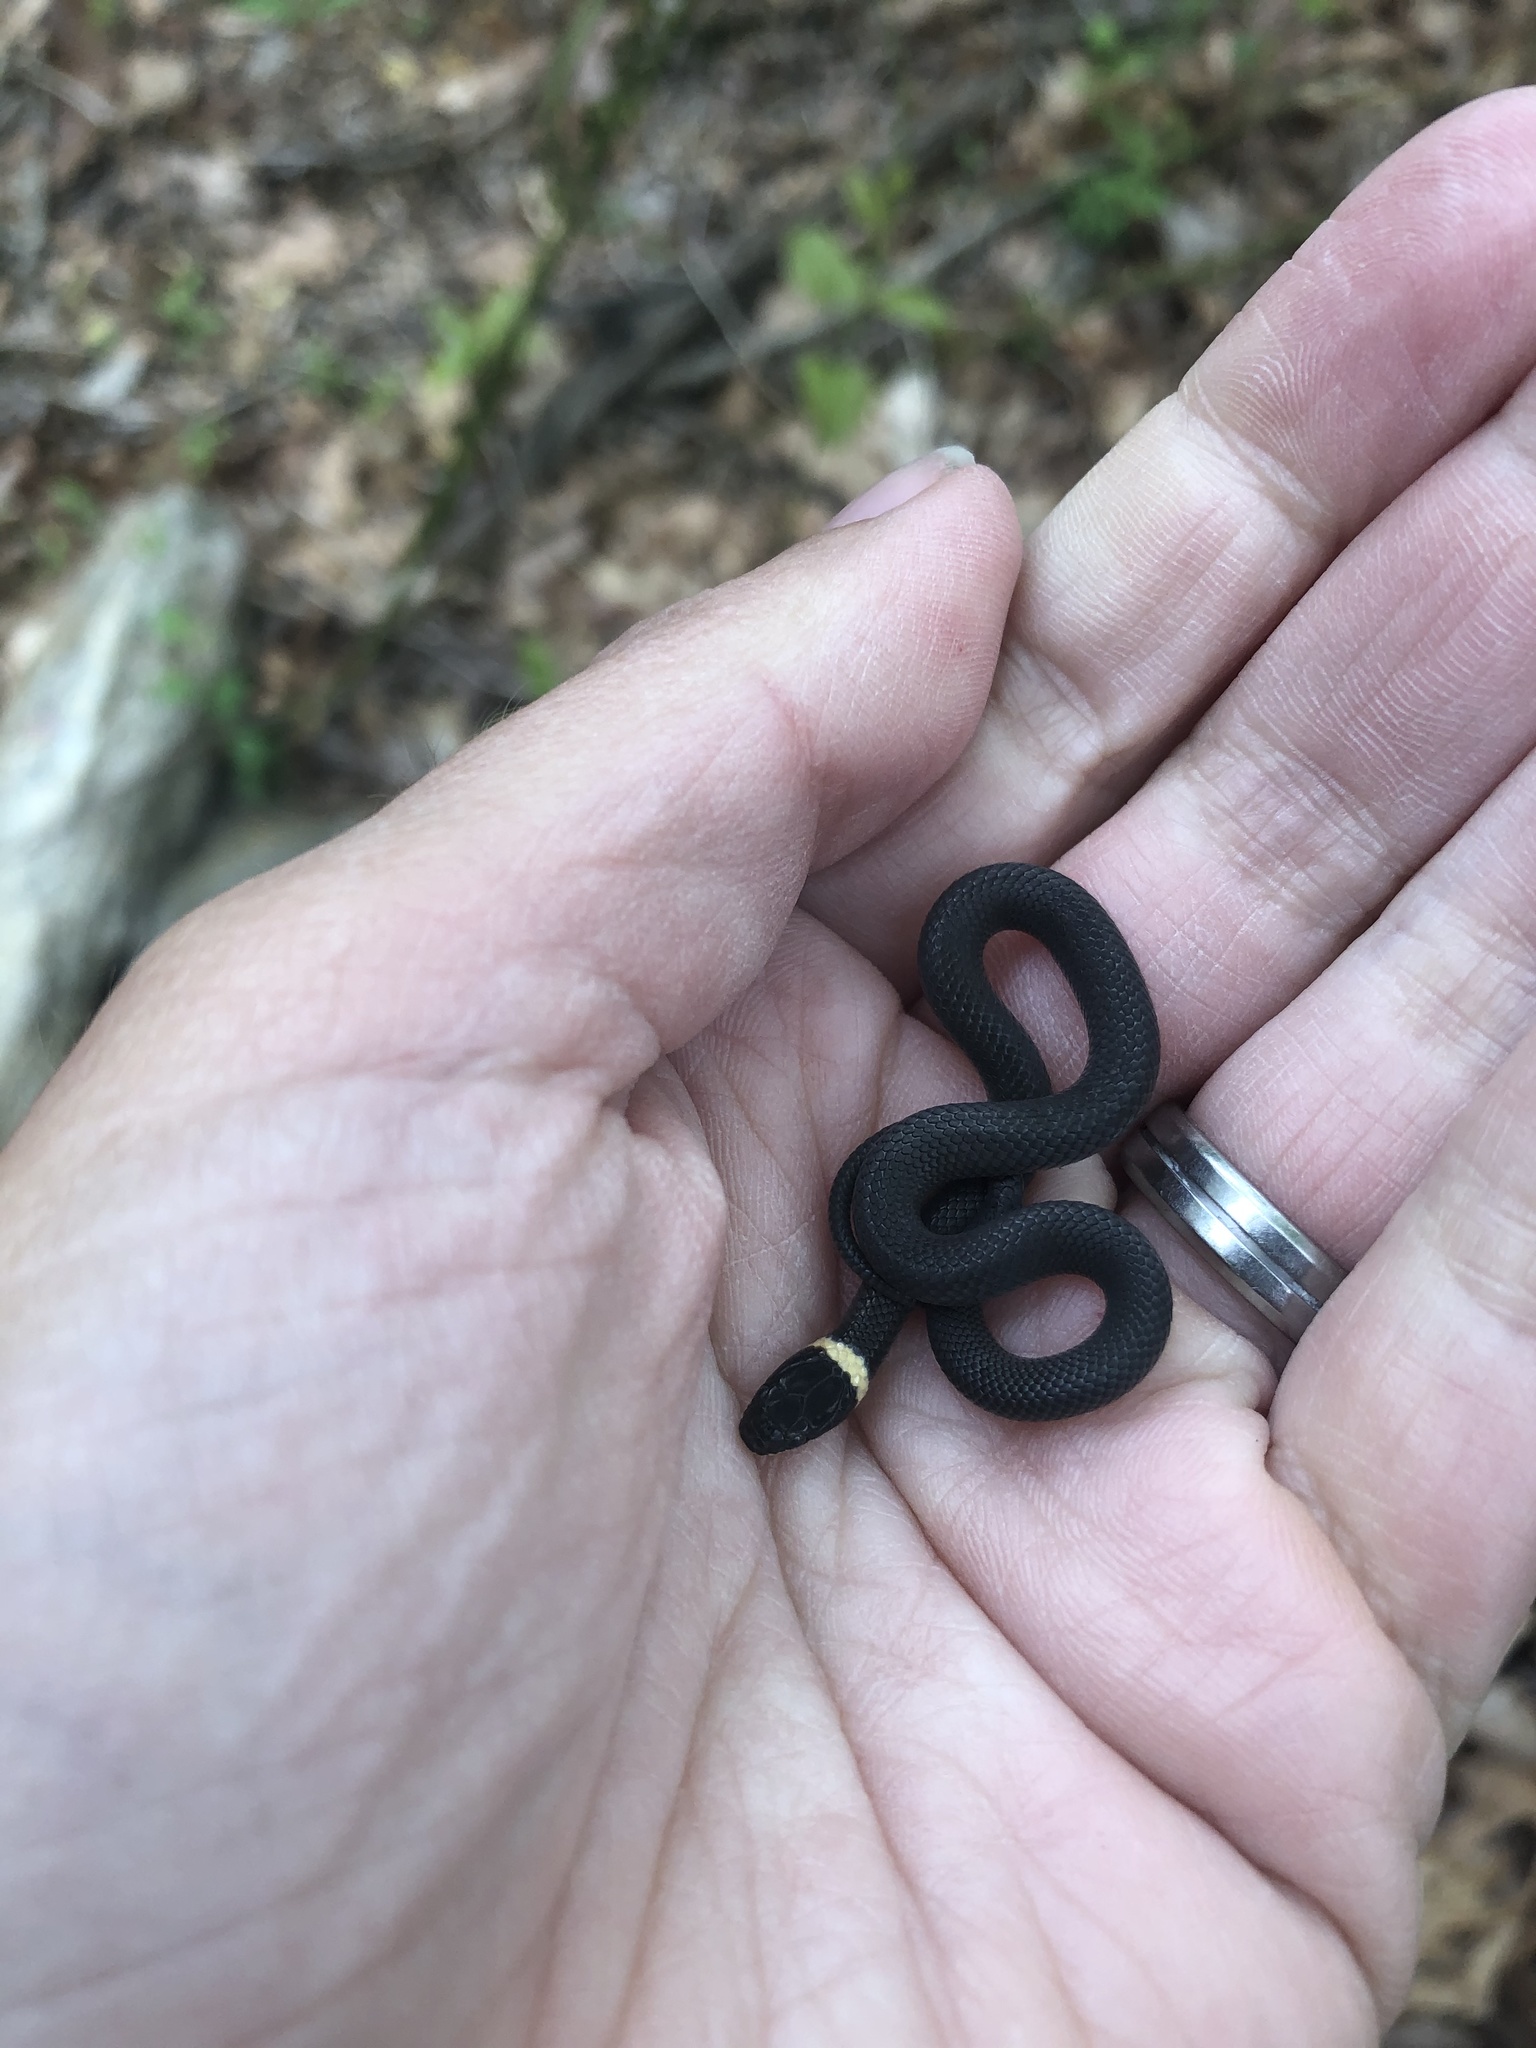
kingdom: Animalia
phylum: Chordata
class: Squamata
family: Colubridae
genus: Diadophis
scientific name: Diadophis punctatus
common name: Ringneck snake
